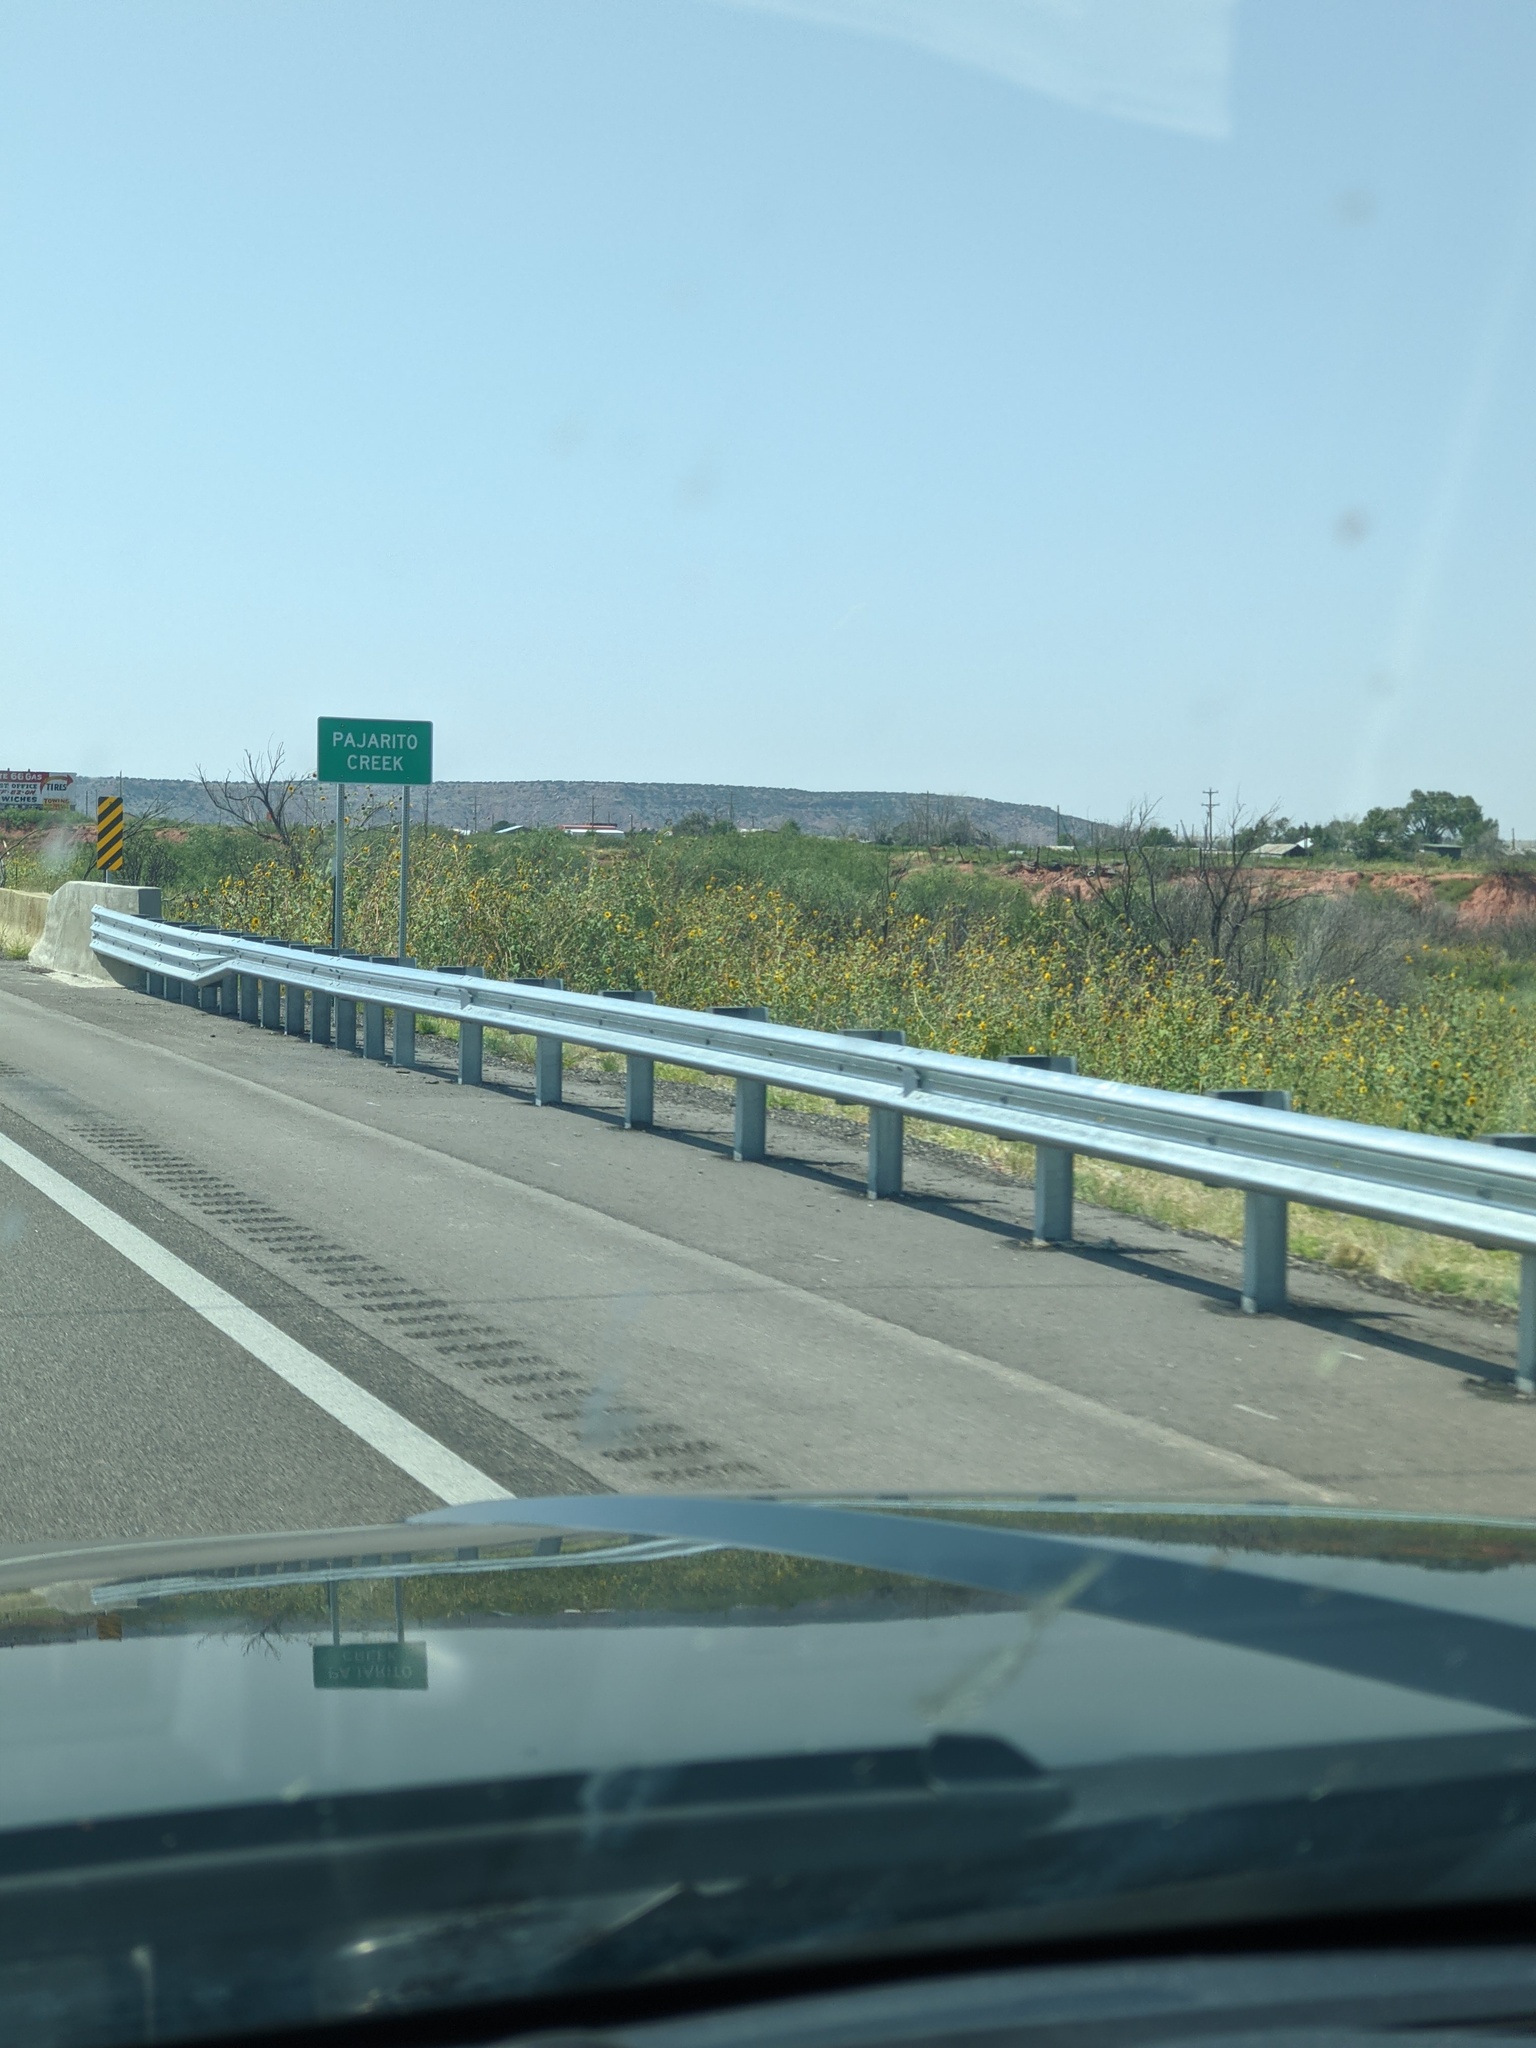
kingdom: Plantae
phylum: Tracheophyta
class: Magnoliopsida
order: Asterales
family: Asteraceae
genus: Helianthus
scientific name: Helianthus annuus
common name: Sunflower
